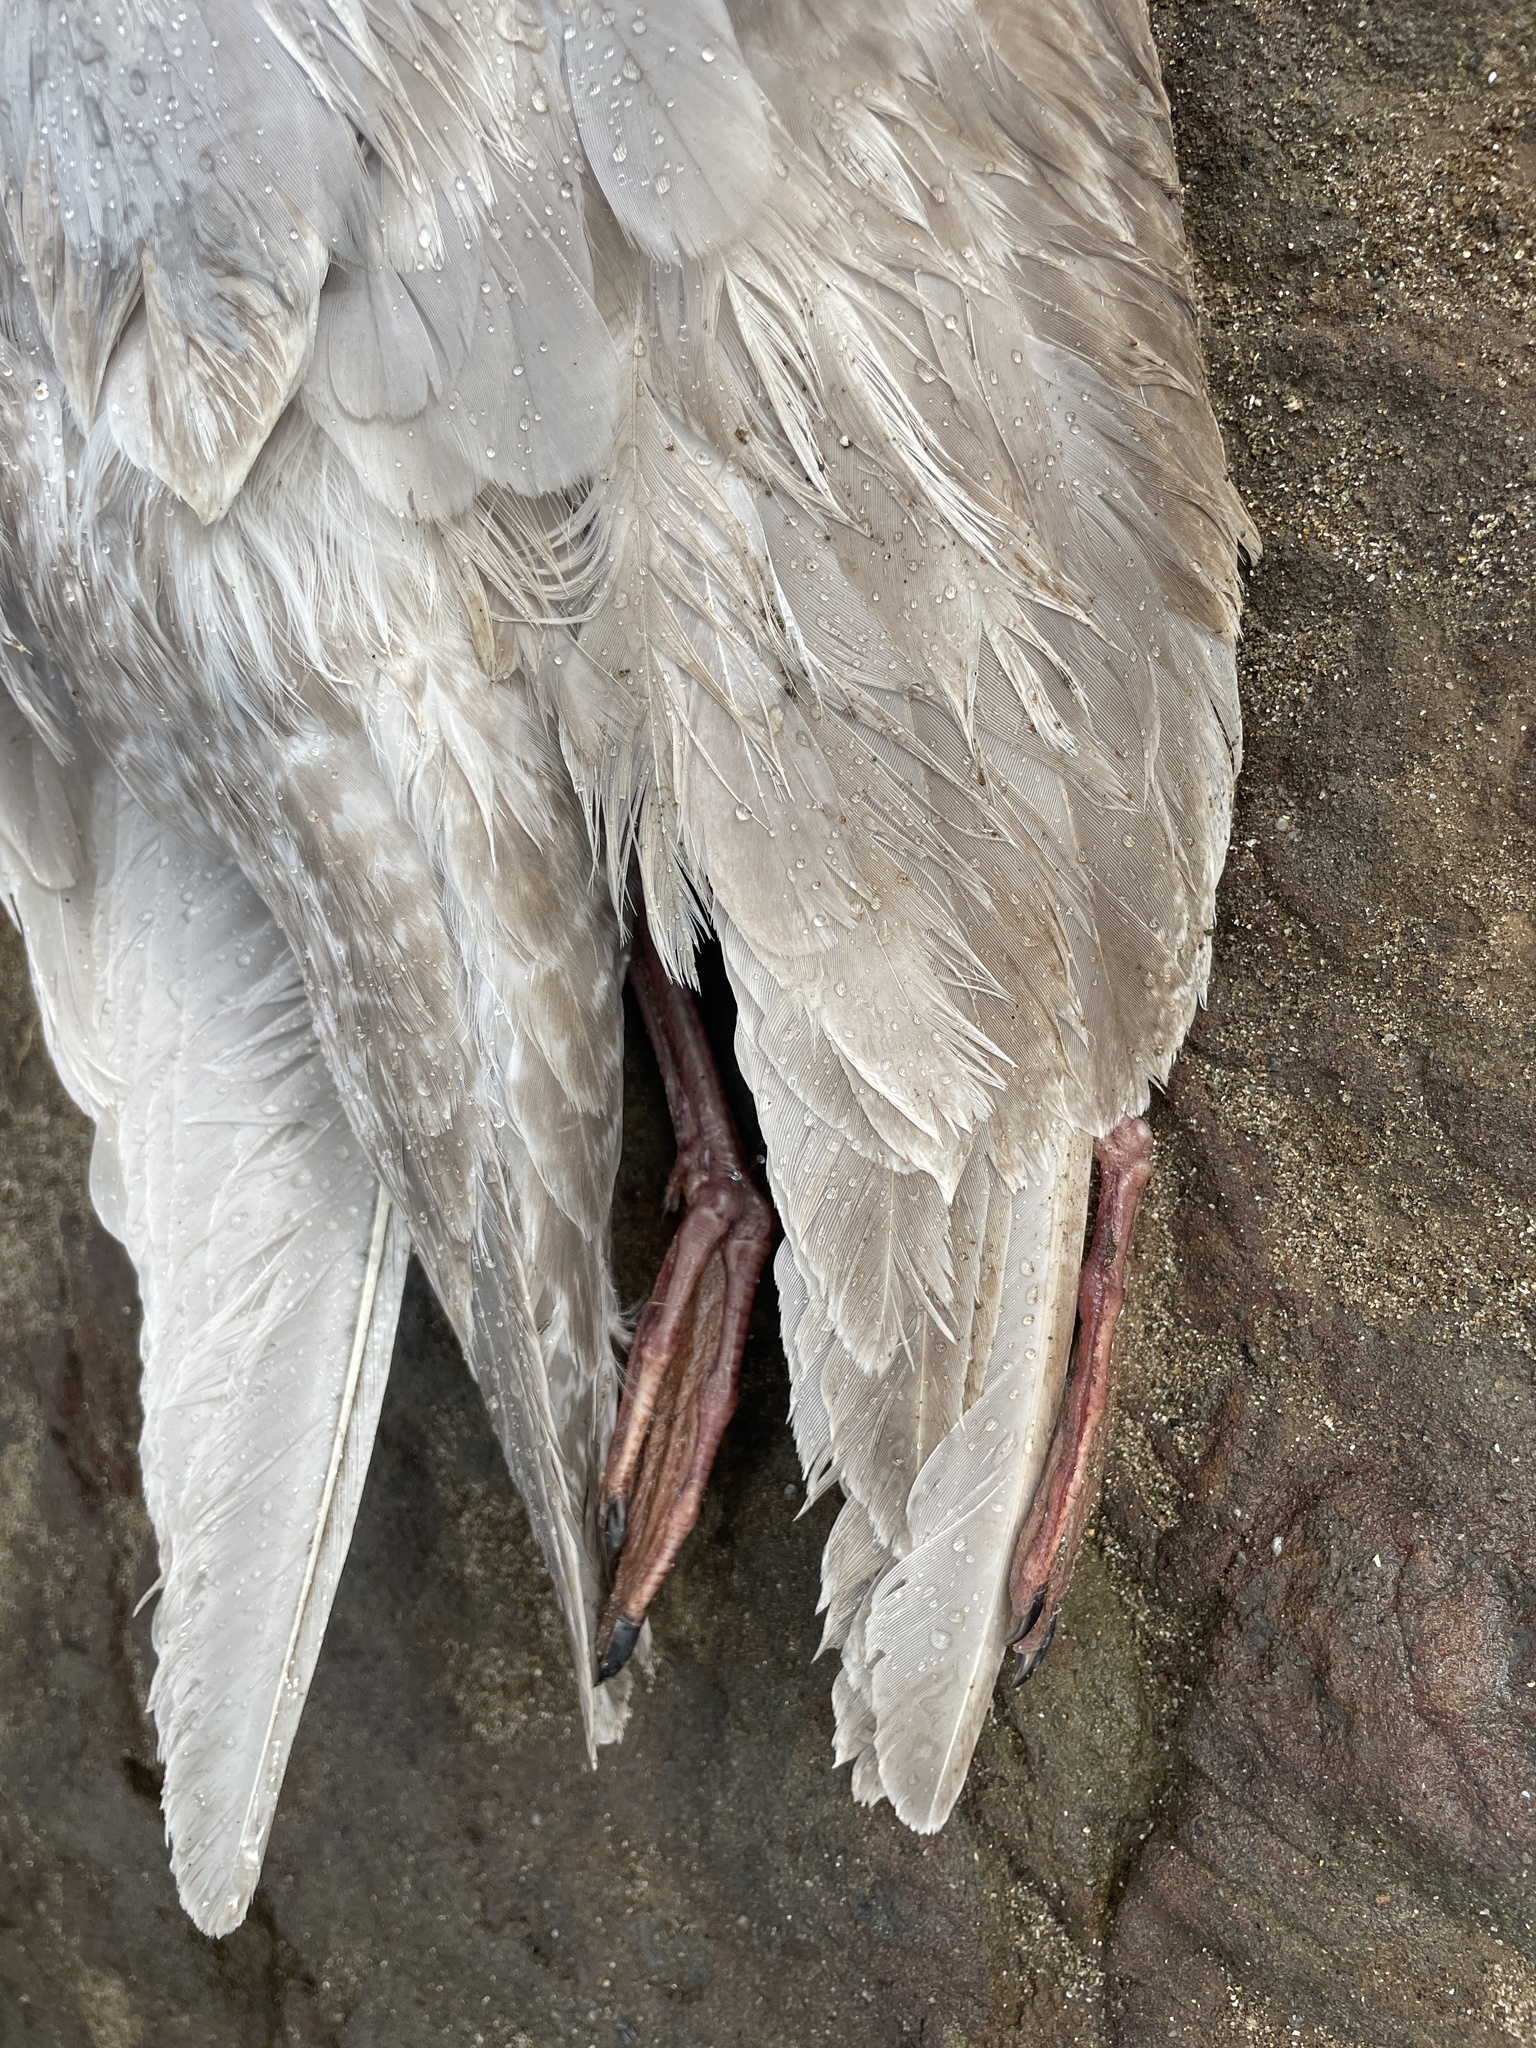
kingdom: Animalia
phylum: Chordata
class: Aves
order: Charadriiformes
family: Laridae
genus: Larus
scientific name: Larus glaucescens
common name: Glaucous-winged gull
